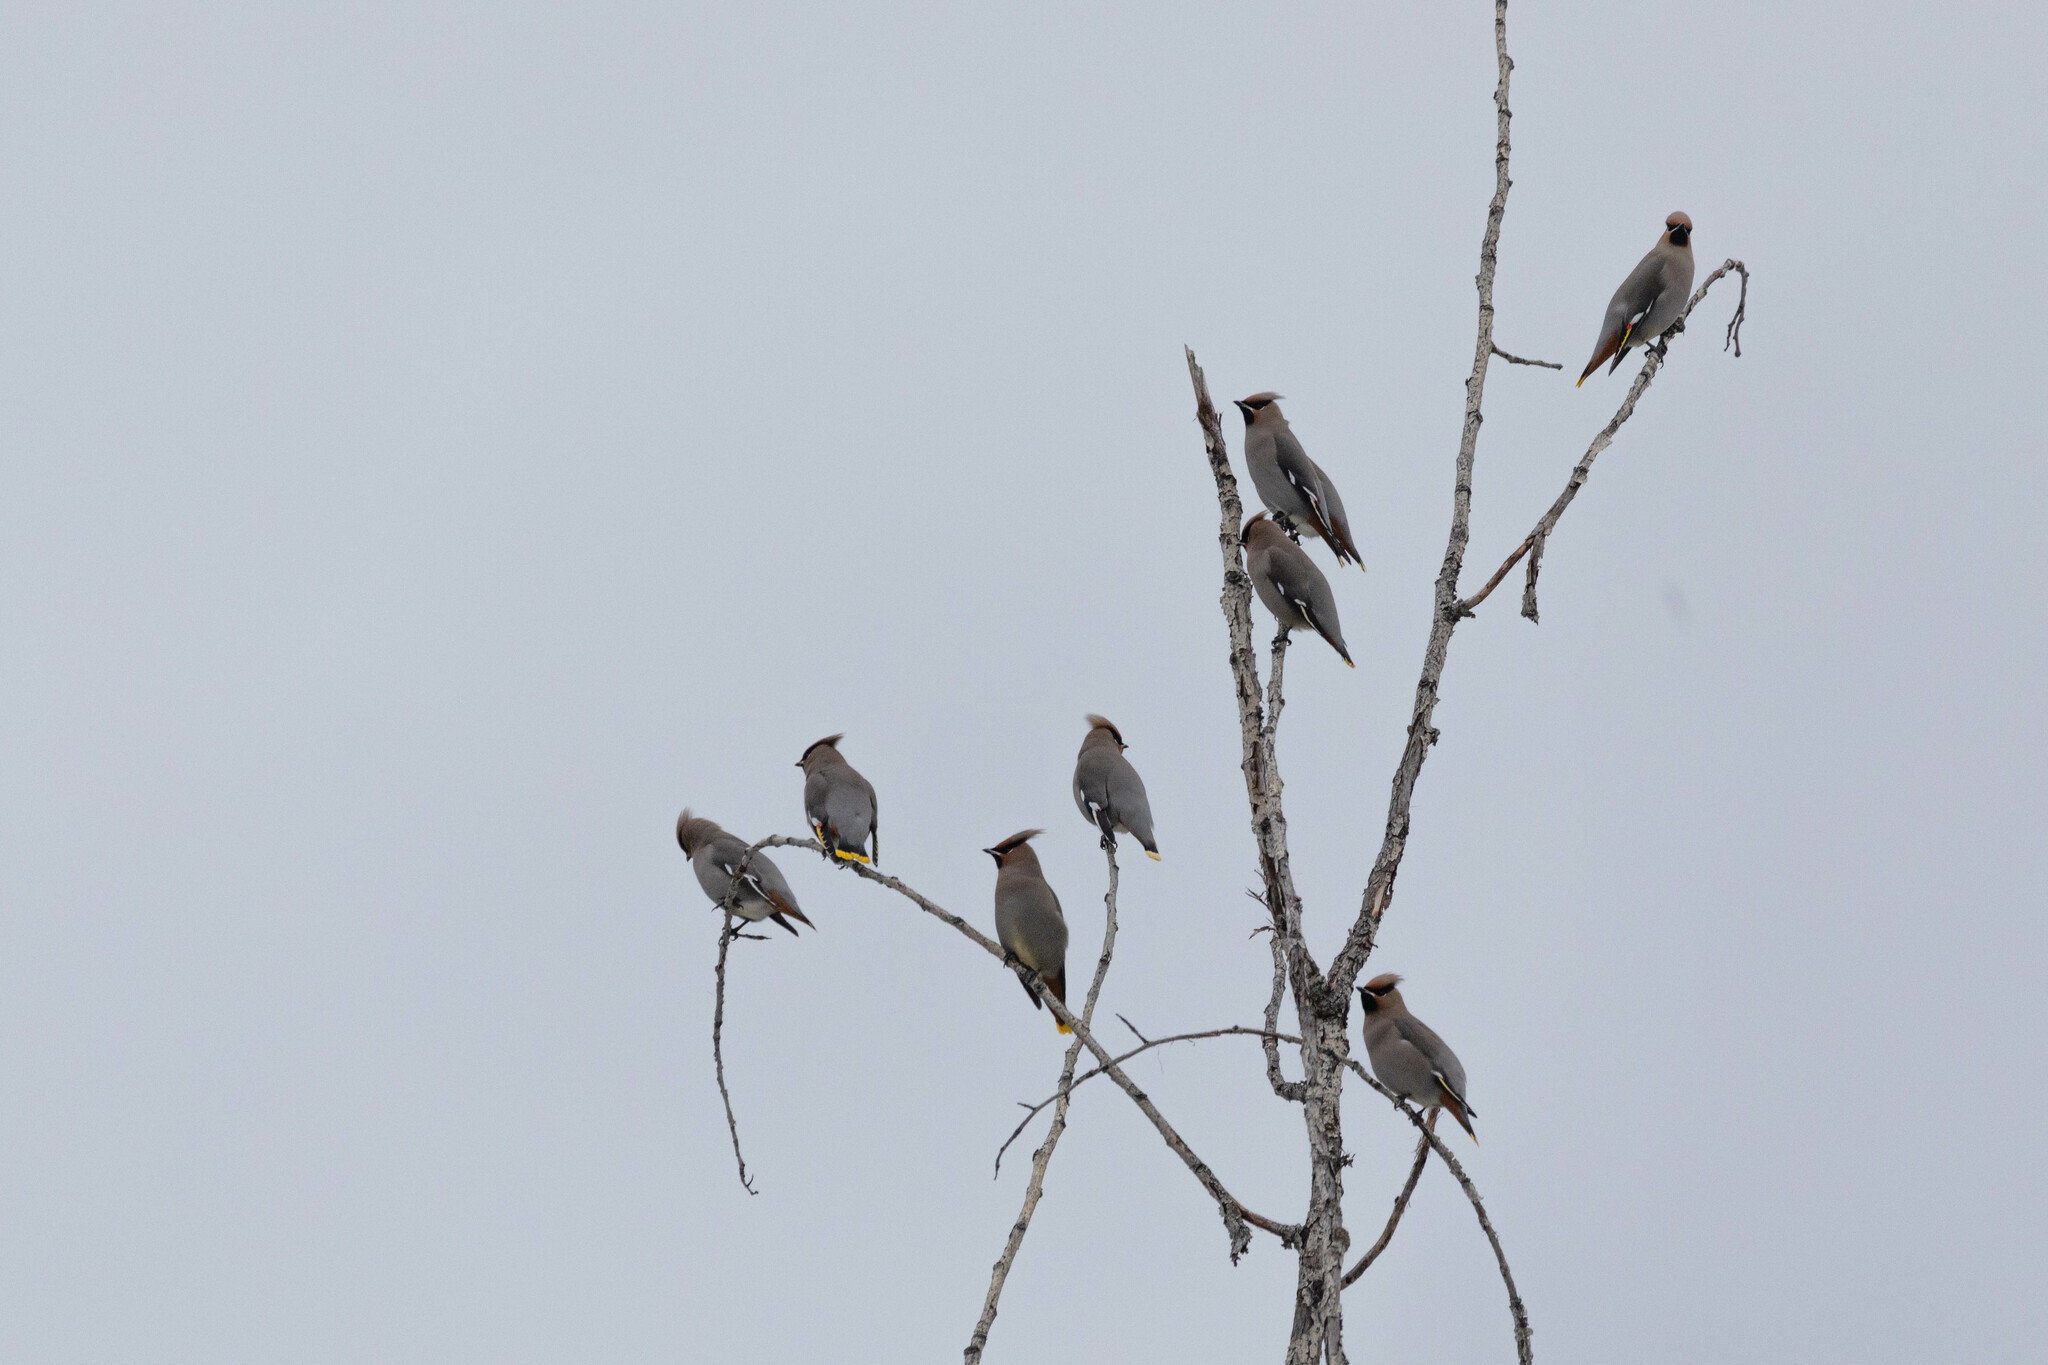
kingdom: Animalia
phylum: Chordata
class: Aves
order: Passeriformes
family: Bombycillidae
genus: Bombycilla
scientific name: Bombycilla garrulus
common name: Bohemian waxwing
